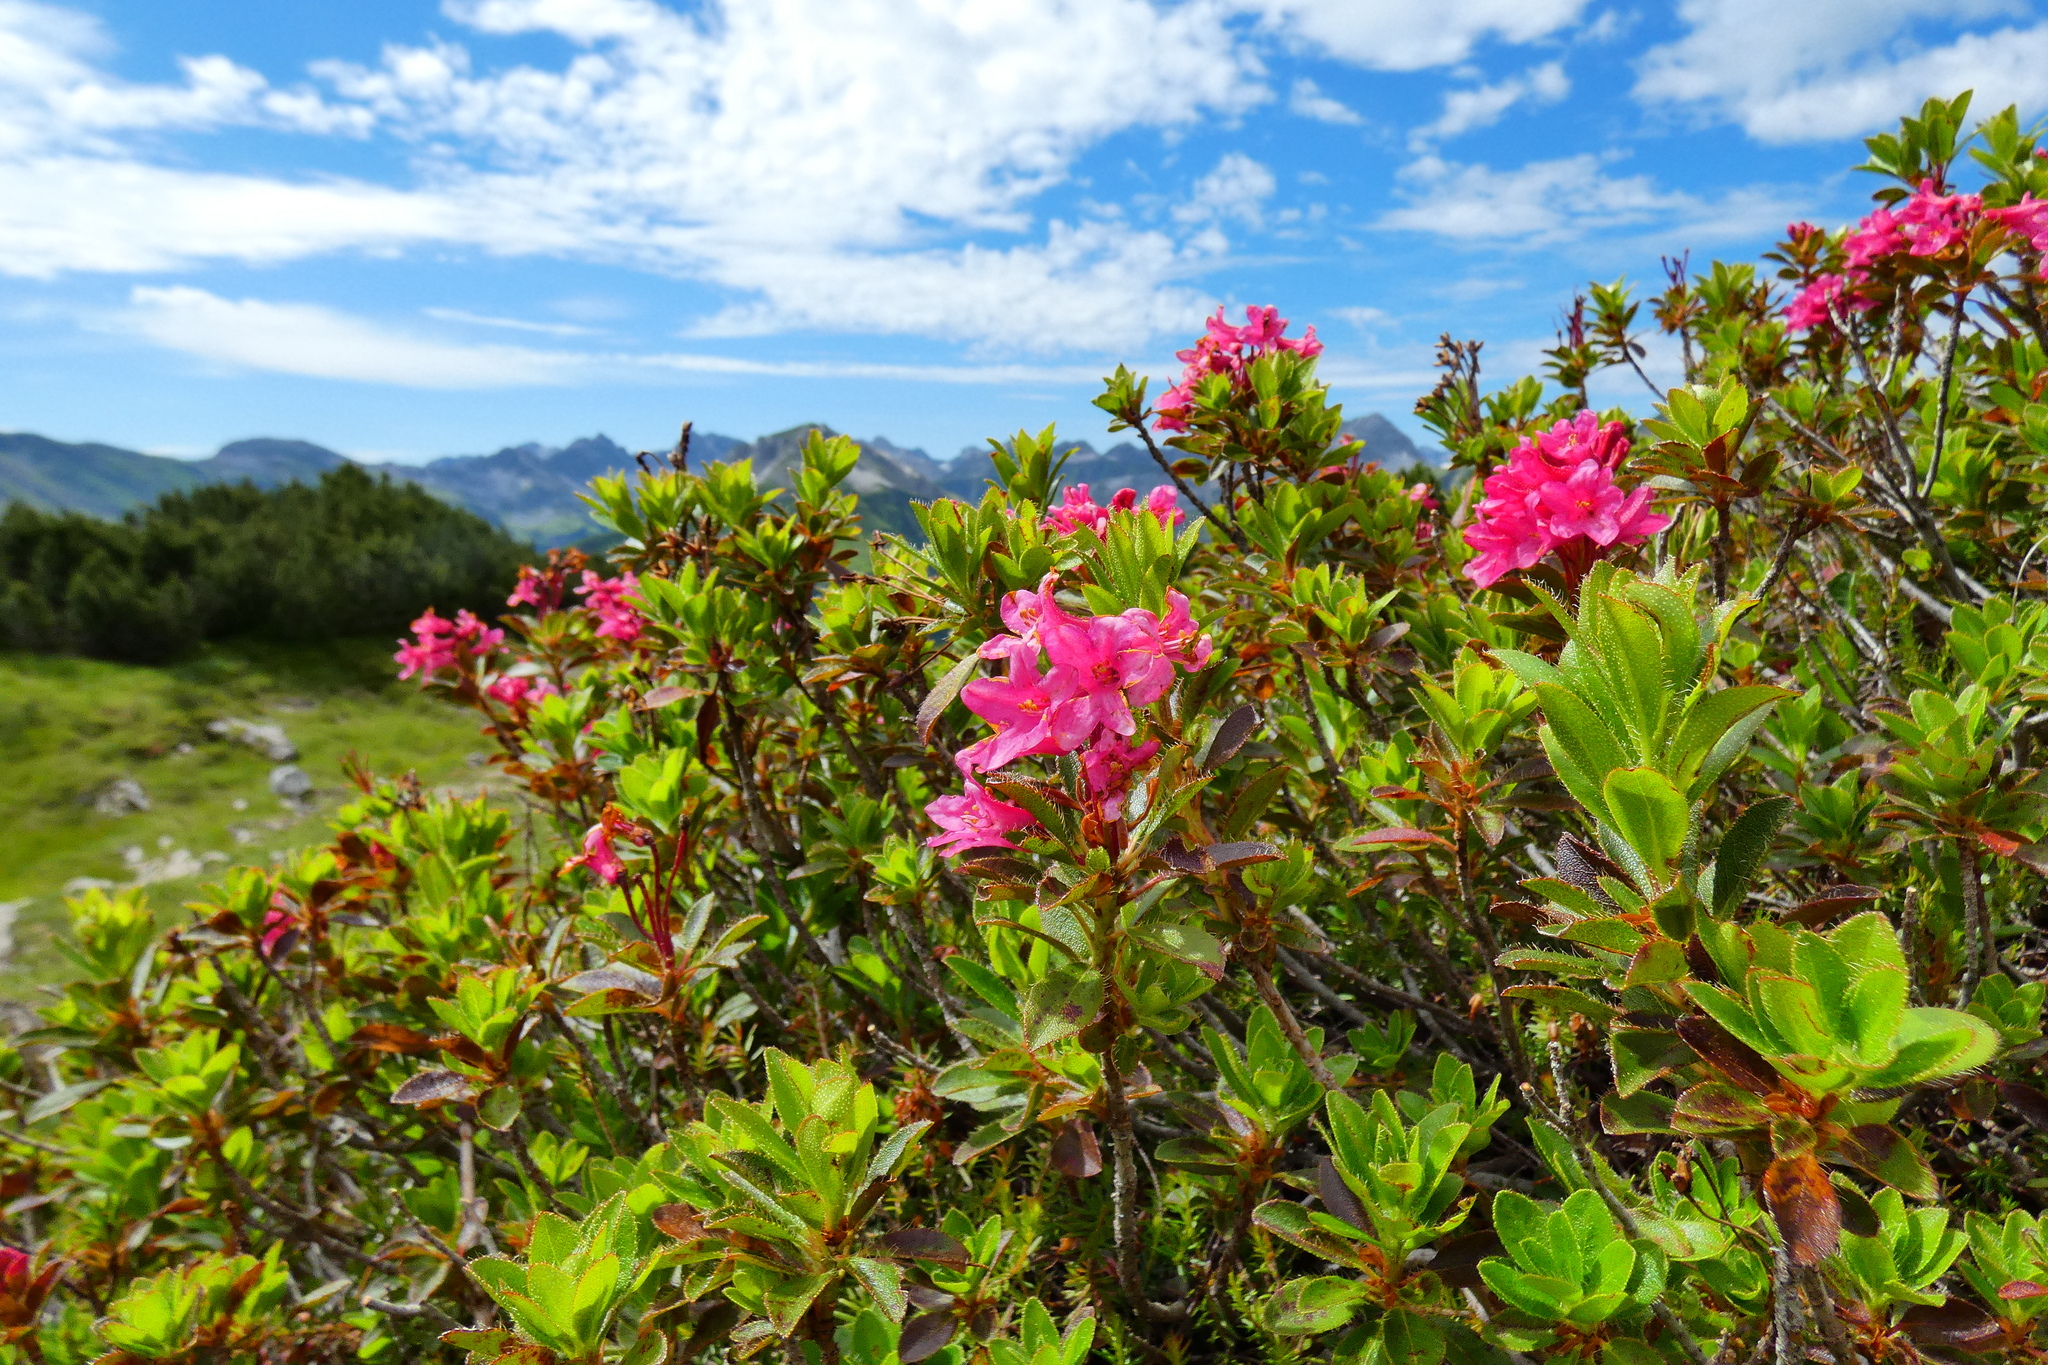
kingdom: Plantae
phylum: Tracheophyta
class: Magnoliopsida
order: Ericales
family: Ericaceae
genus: Rhododendron
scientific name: Rhododendron hirsutum
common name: Hairy alpenrose
